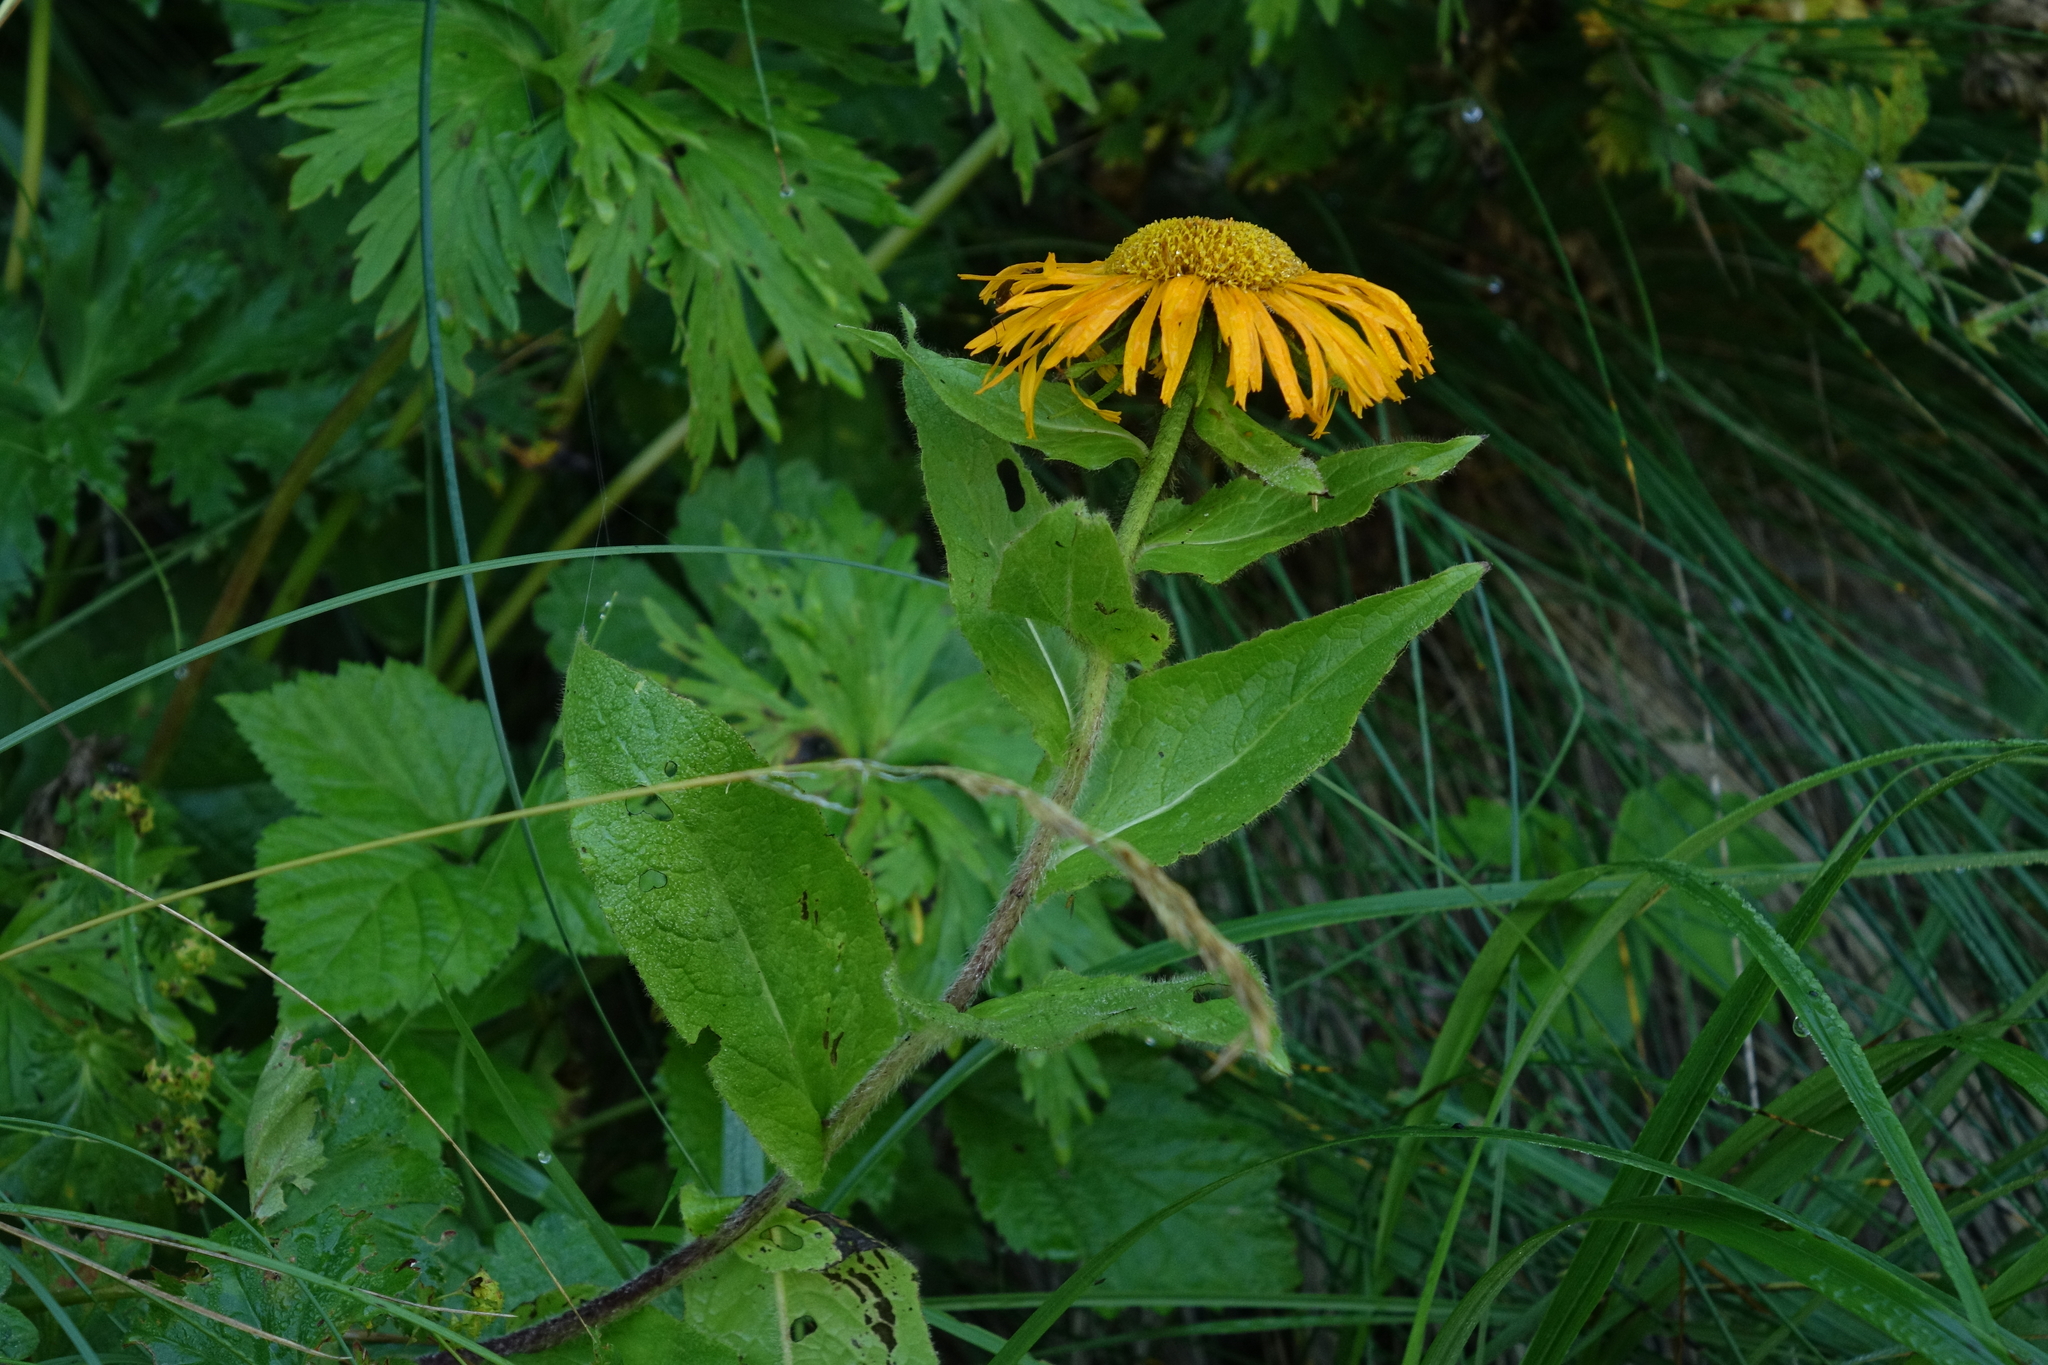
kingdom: Plantae
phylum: Tracheophyta
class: Magnoliopsida
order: Asterales
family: Asteraceae
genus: Pentanema
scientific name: Pentanema orientale
